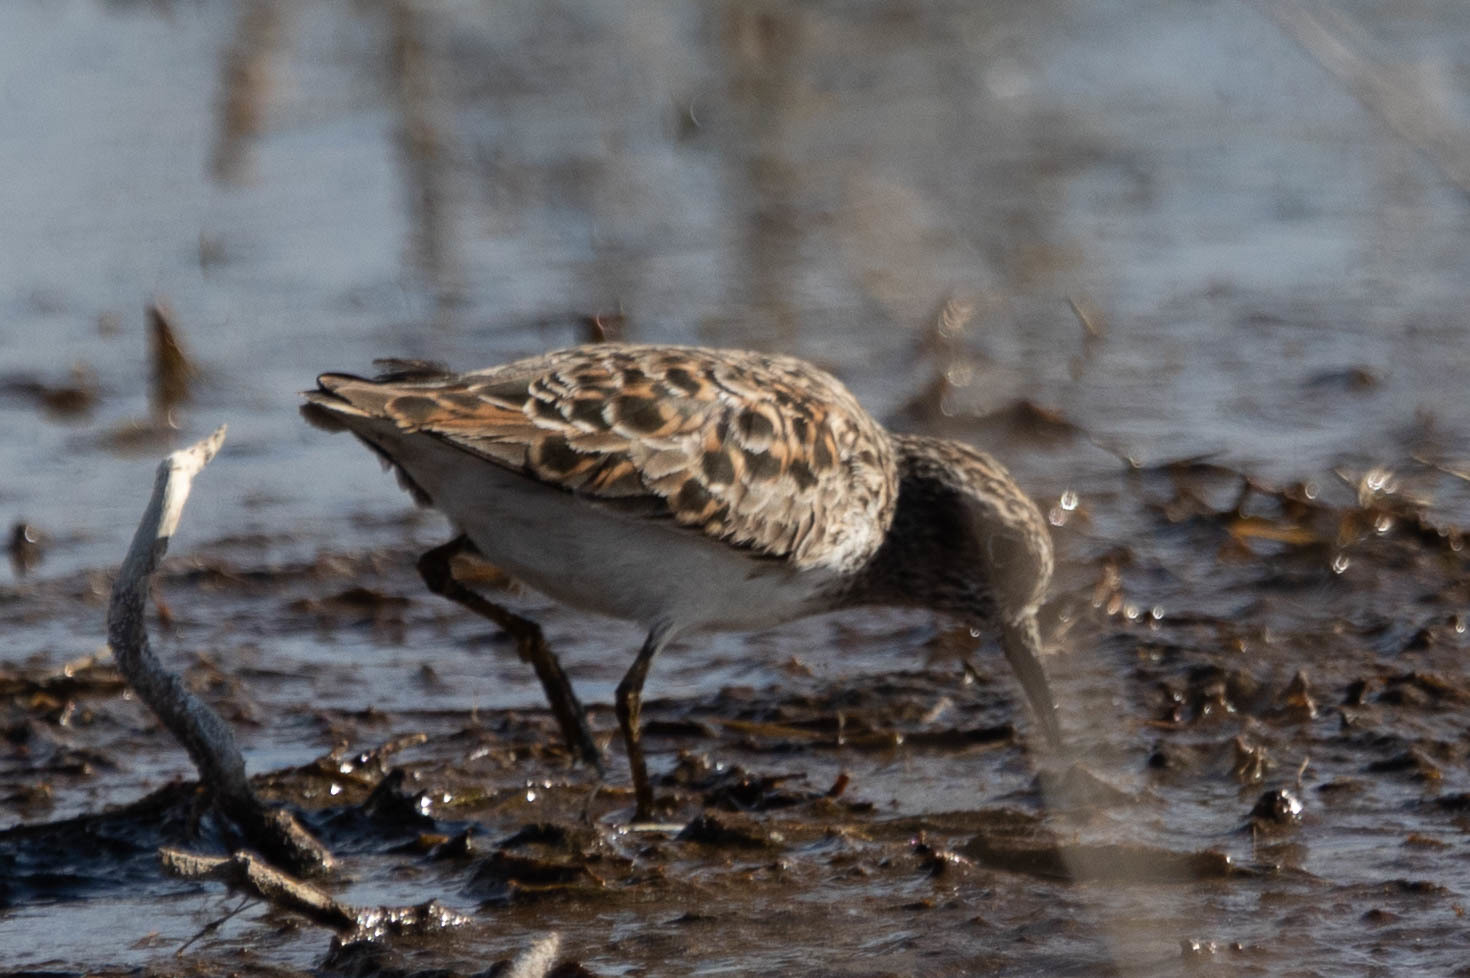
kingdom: Animalia
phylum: Chordata
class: Aves
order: Charadriiformes
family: Scolopacidae
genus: Calidris
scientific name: Calidris minutilla
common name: Least sandpiper
